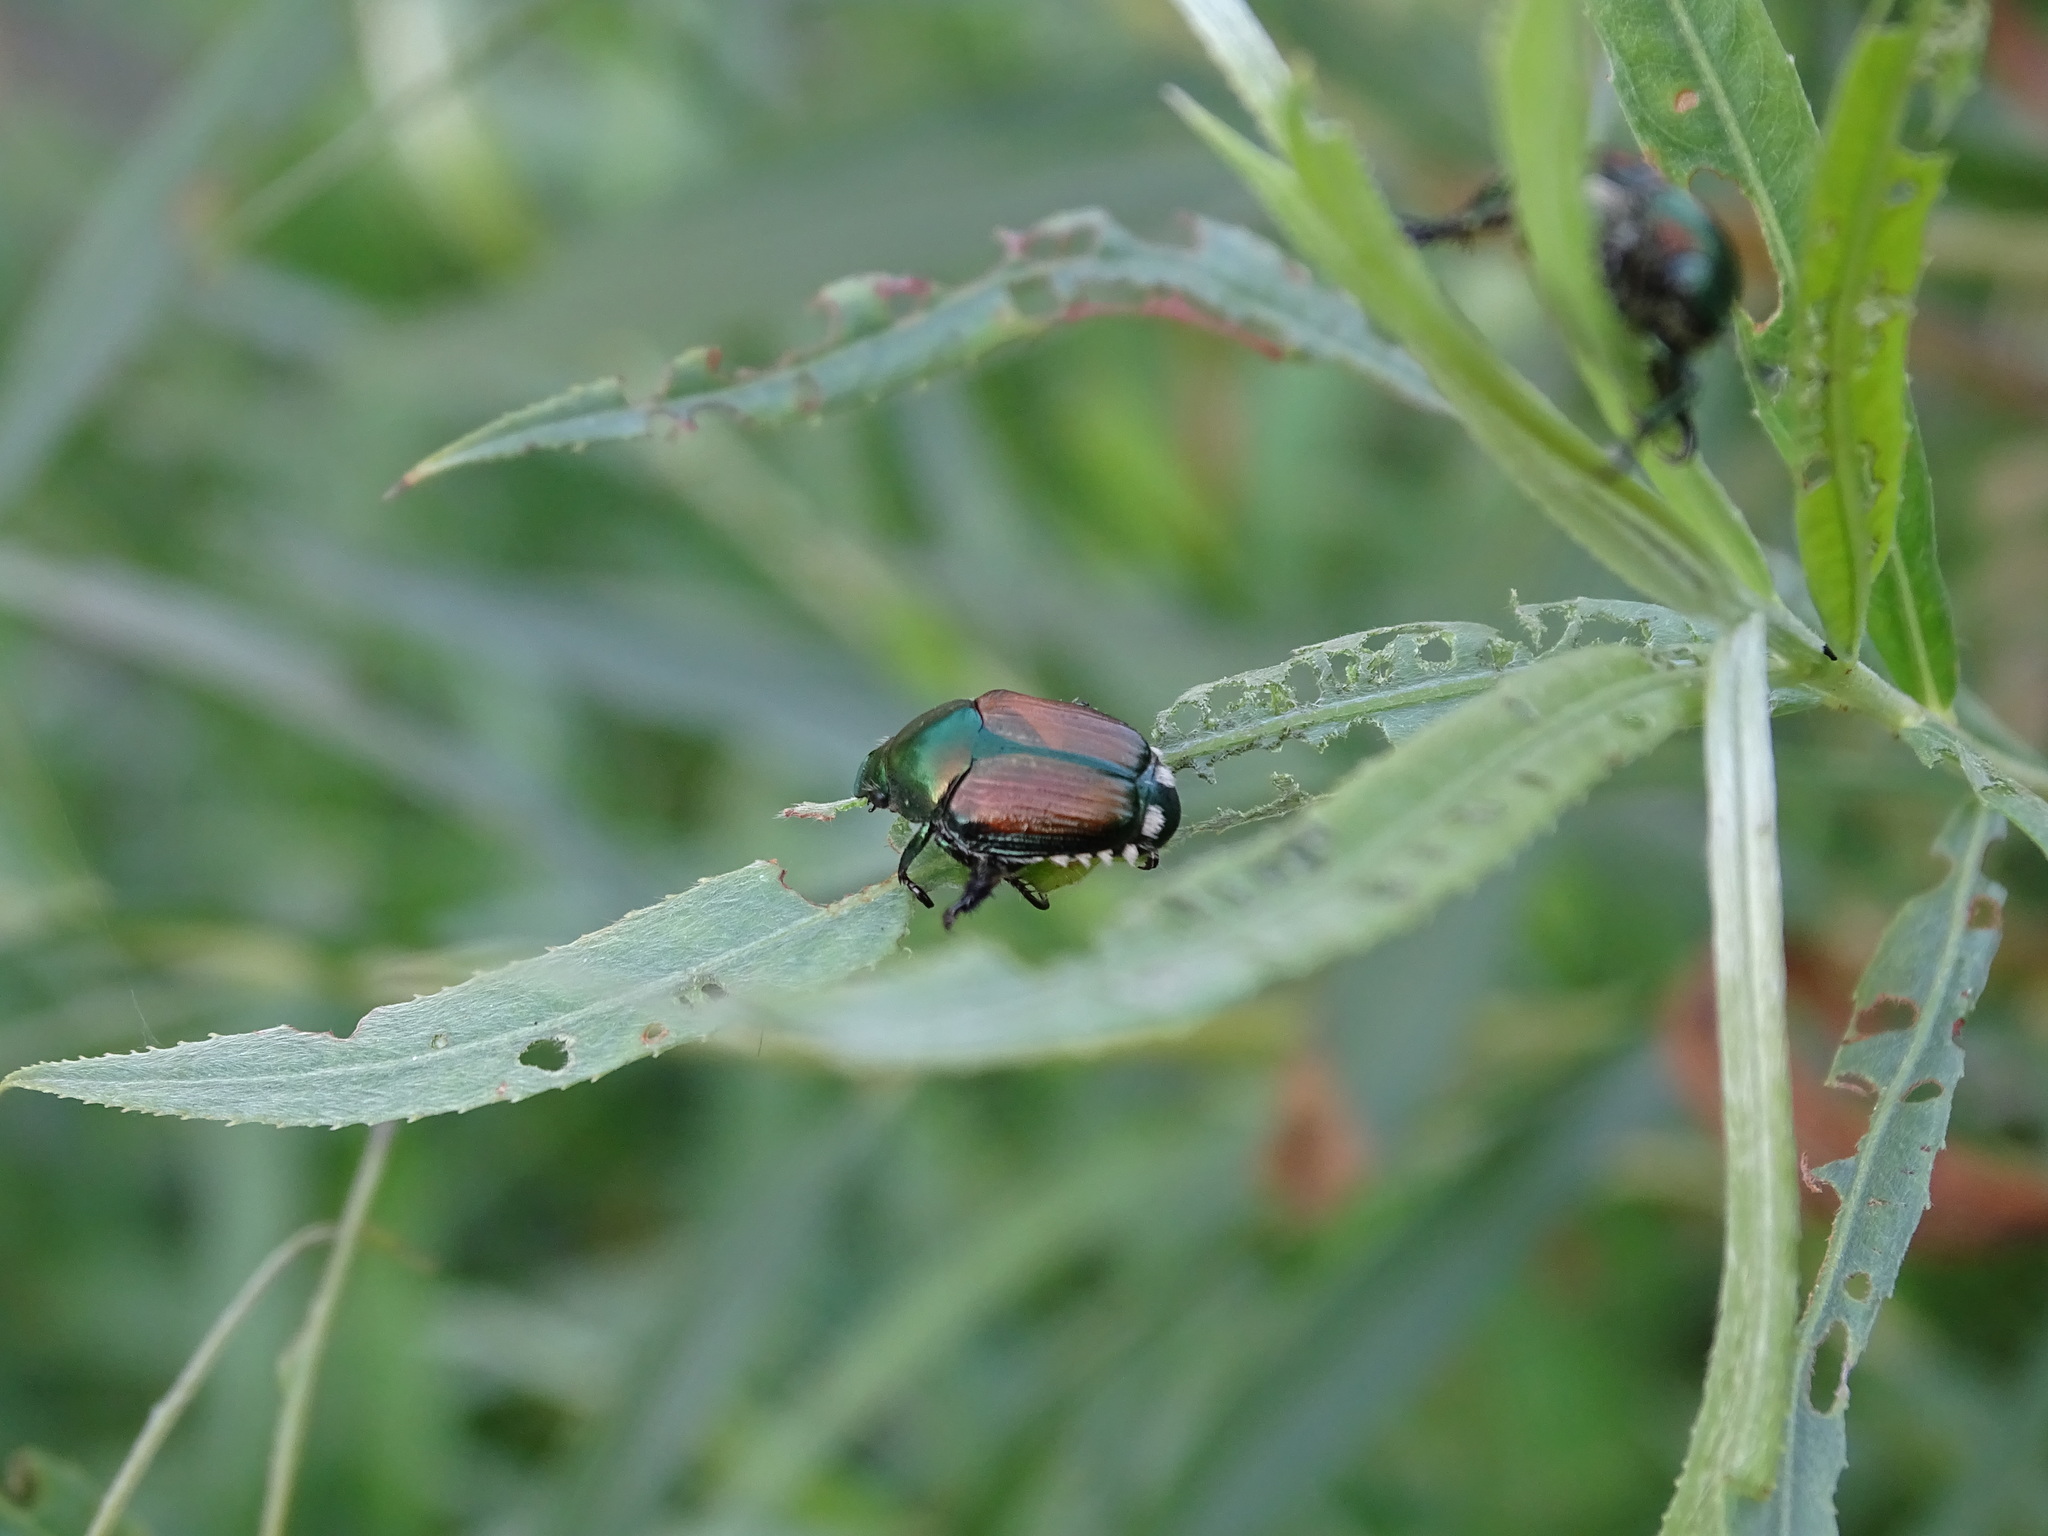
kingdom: Animalia
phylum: Arthropoda
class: Insecta
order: Coleoptera
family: Scarabaeidae
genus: Popillia
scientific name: Popillia japonica
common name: Japanese beetle
